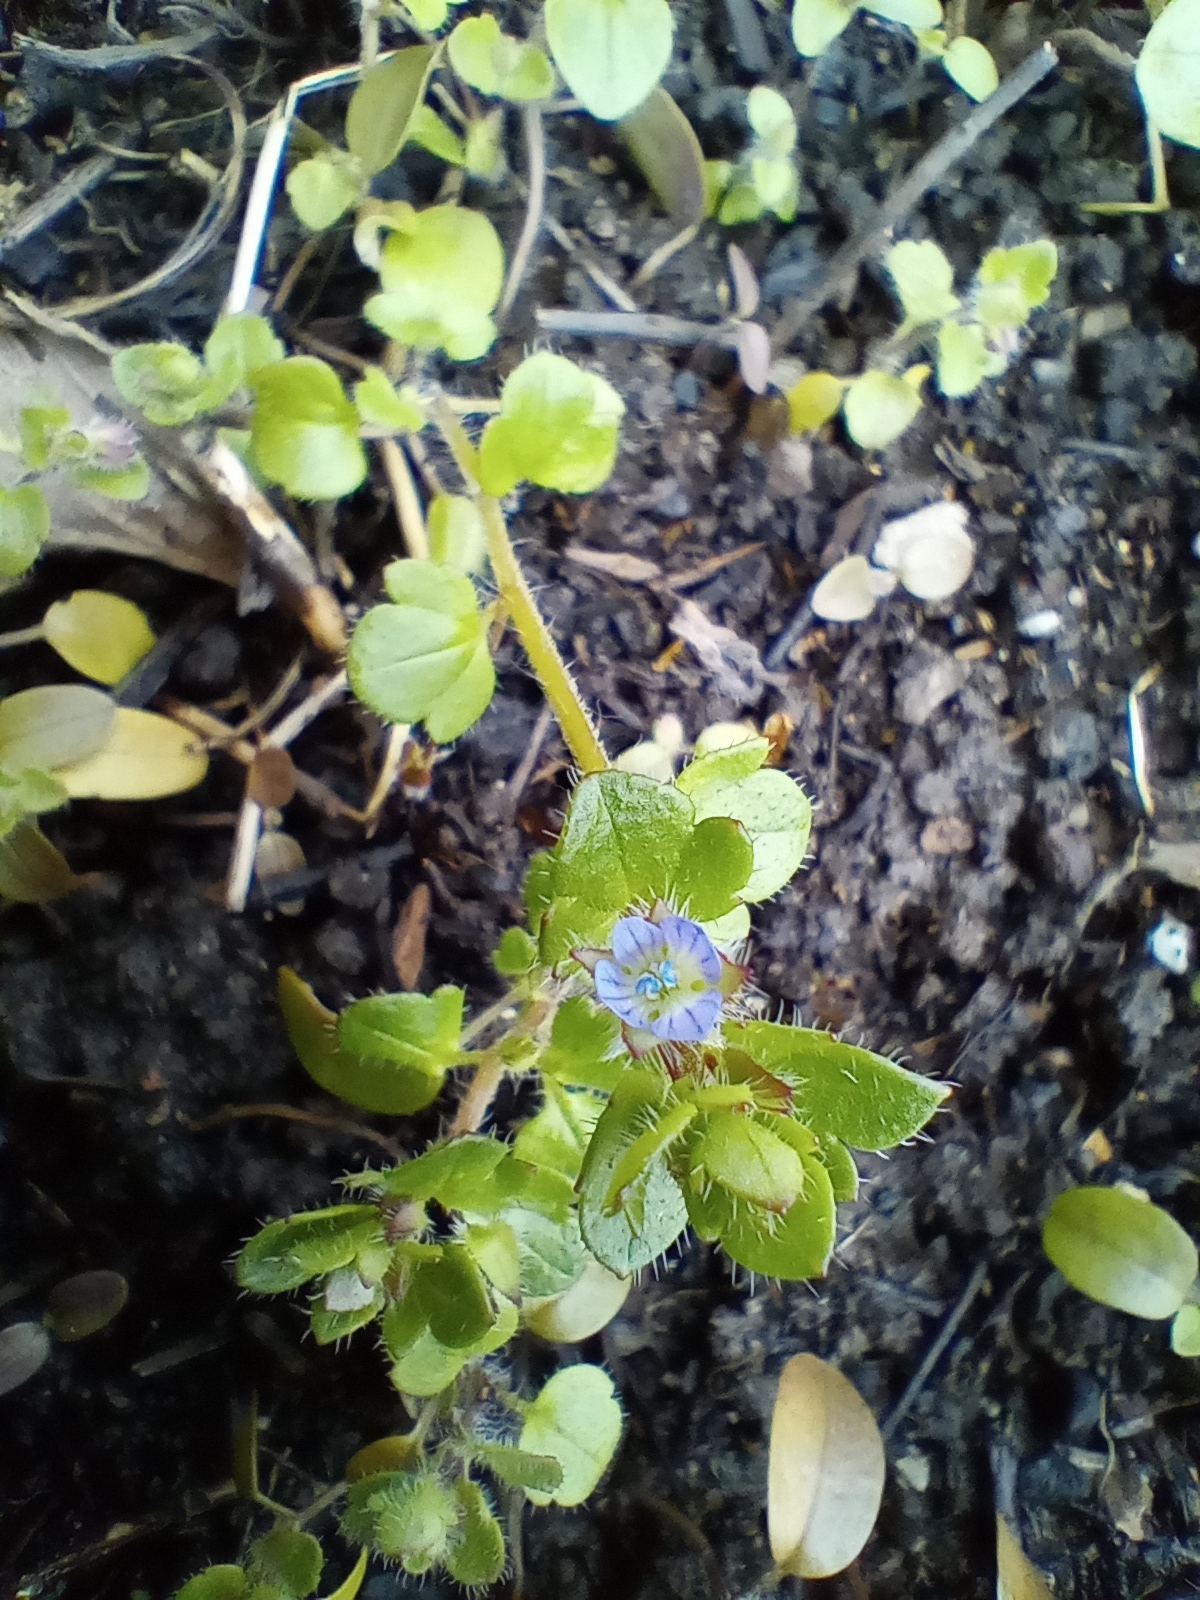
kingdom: Plantae
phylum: Tracheophyta
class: Magnoliopsida
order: Lamiales
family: Plantaginaceae
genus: Veronica
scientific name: Veronica hederifolia
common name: Ivy-leaved speedwell
